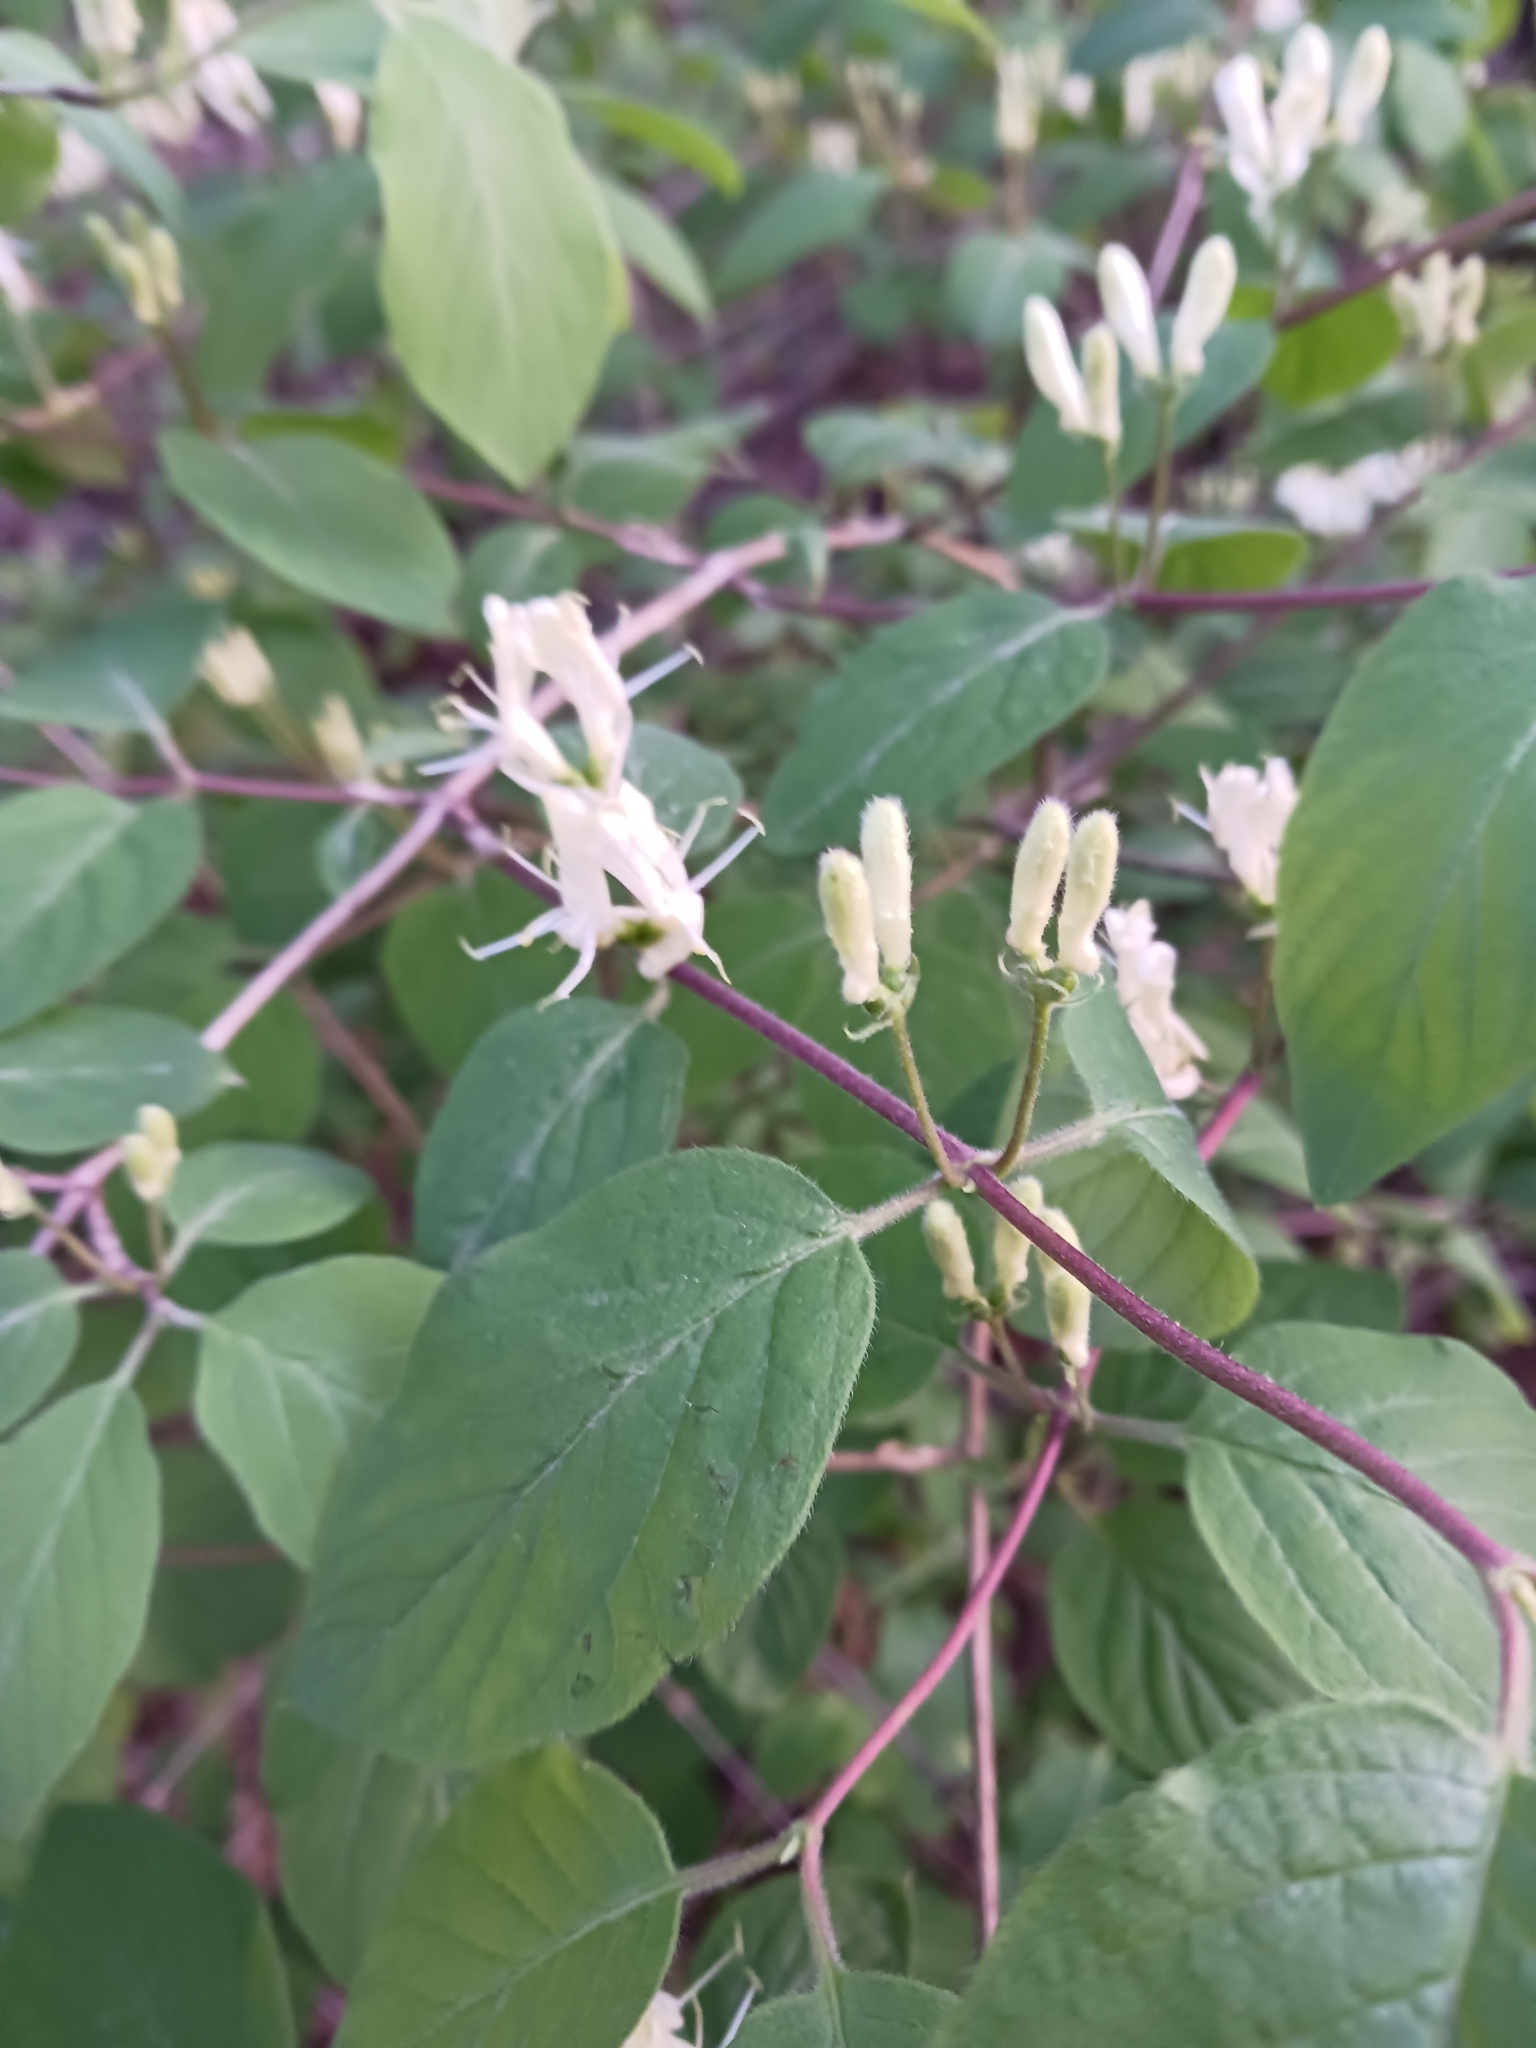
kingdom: Plantae
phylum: Tracheophyta
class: Magnoliopsida
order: Dipsacales
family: Caprifoliaceae
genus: Lonicera
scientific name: Lonicera xylosteum
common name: Fly honeysuckle
